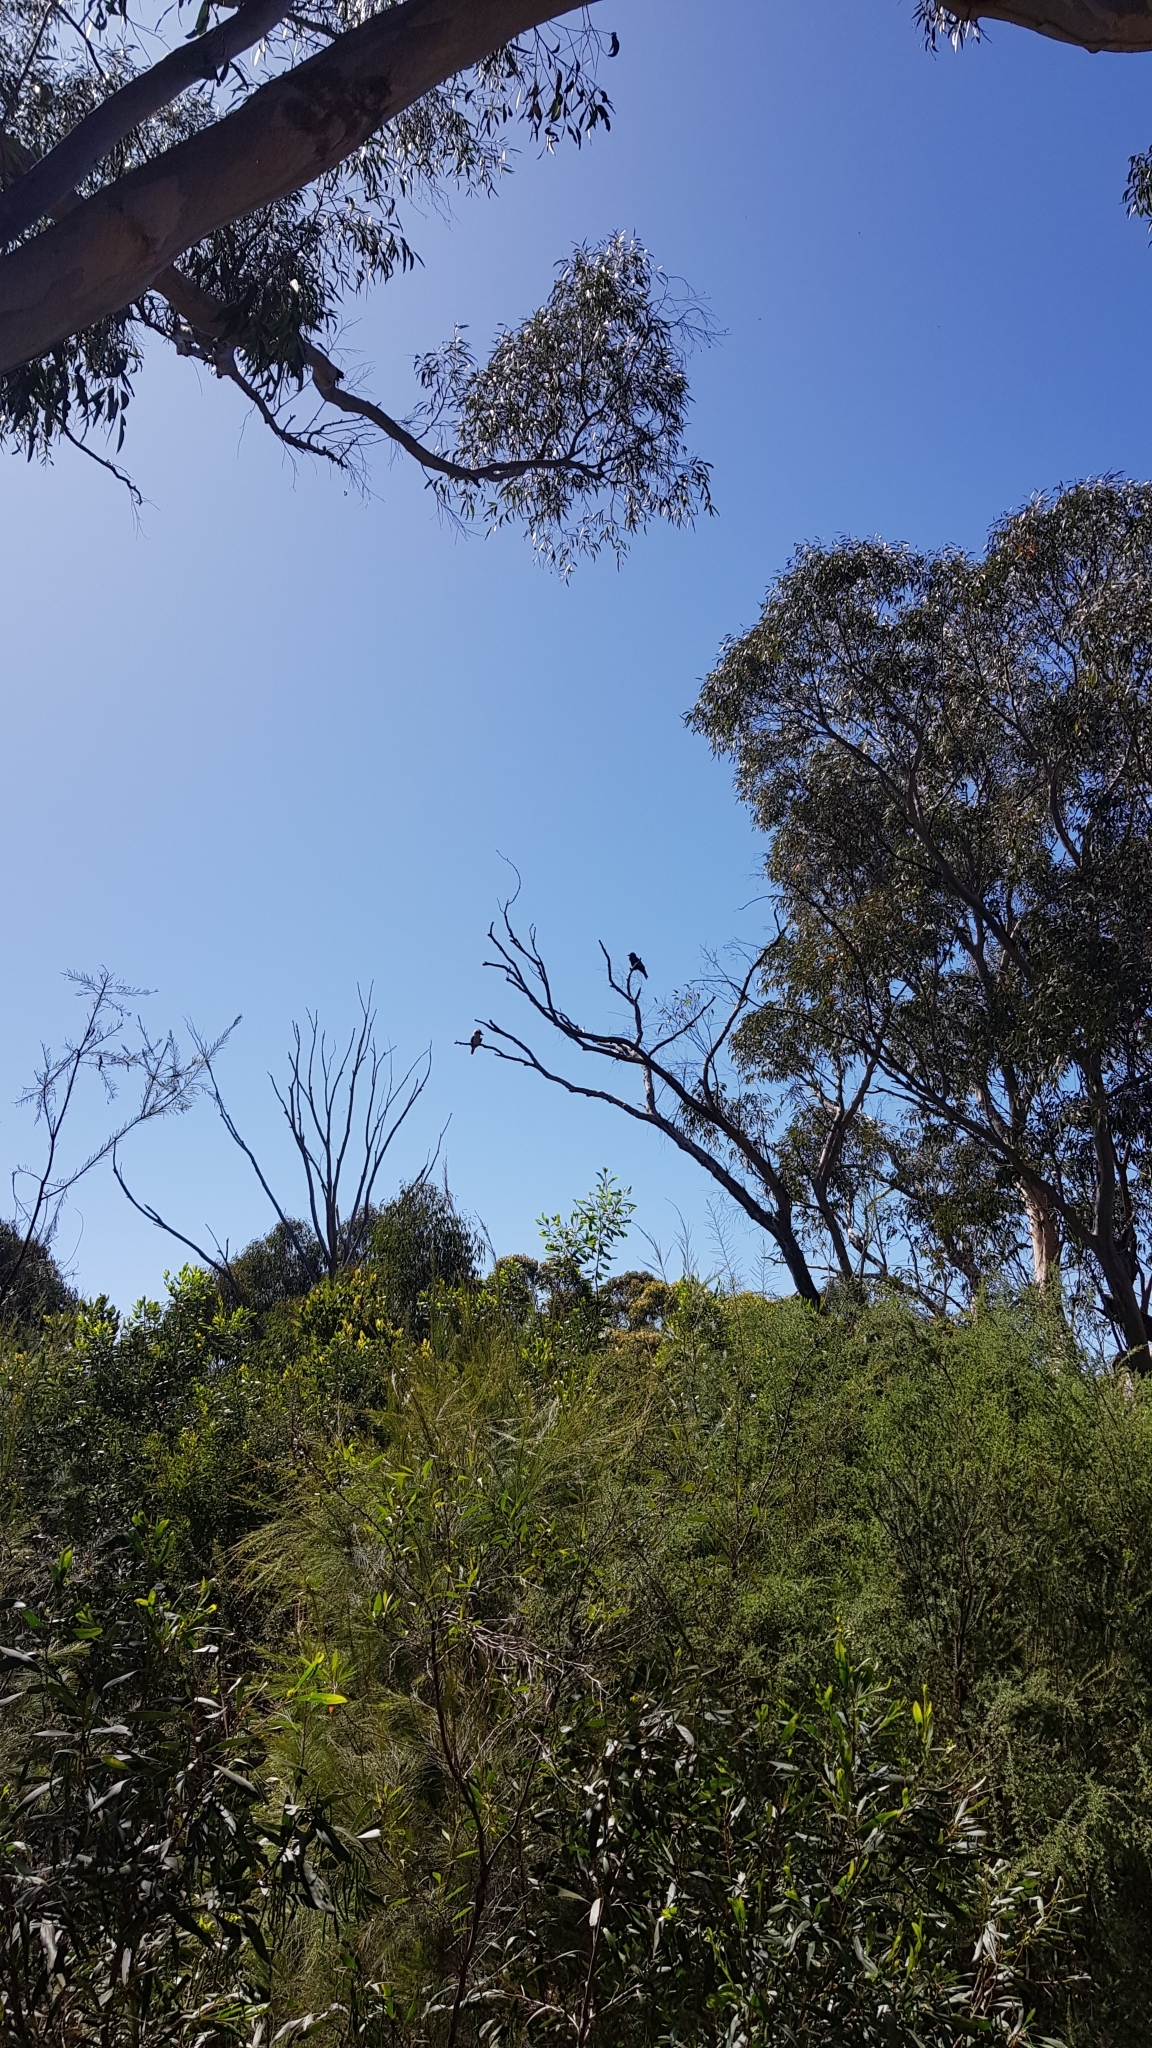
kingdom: Animalia
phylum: Chordata
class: Aves
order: Passeriformes
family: Corvidae
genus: Corvus
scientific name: Corvus coronoides
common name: Australian raven
